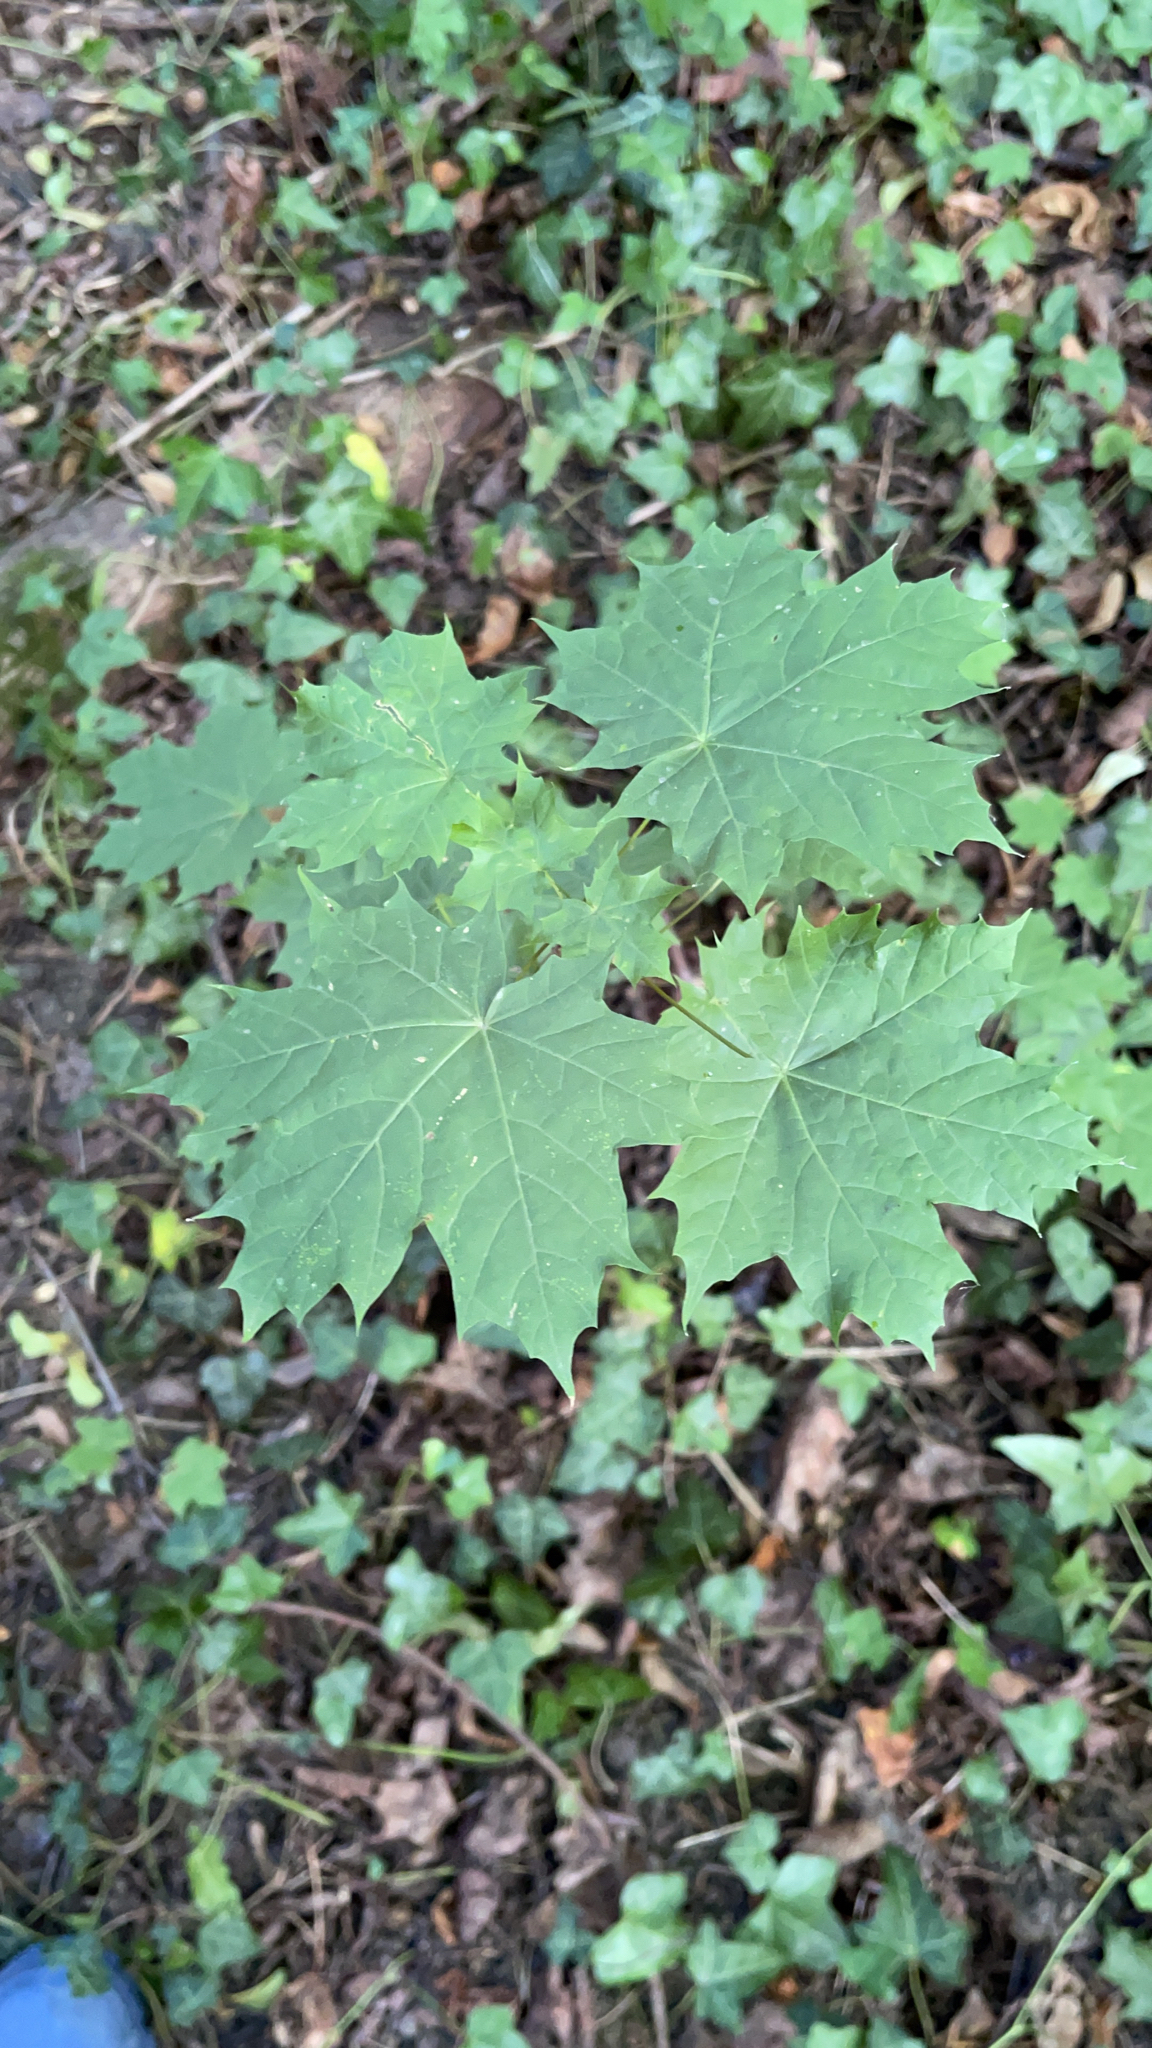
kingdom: Plantae
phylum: Tracheophyta
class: Magnoliopsida
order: Sapindales
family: Sapindaceae
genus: Acer
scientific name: Acer platanoides
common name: Norway maple
